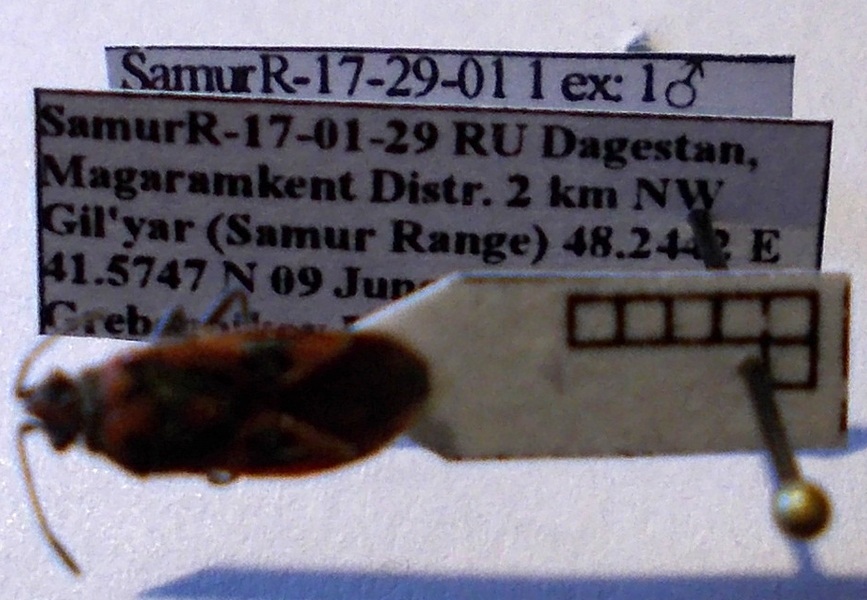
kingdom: Animalia
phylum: Arthropoda
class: Insecta
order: Hemiptera
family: Rhopalidae
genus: Corizus
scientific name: Corizus hyoscyami
